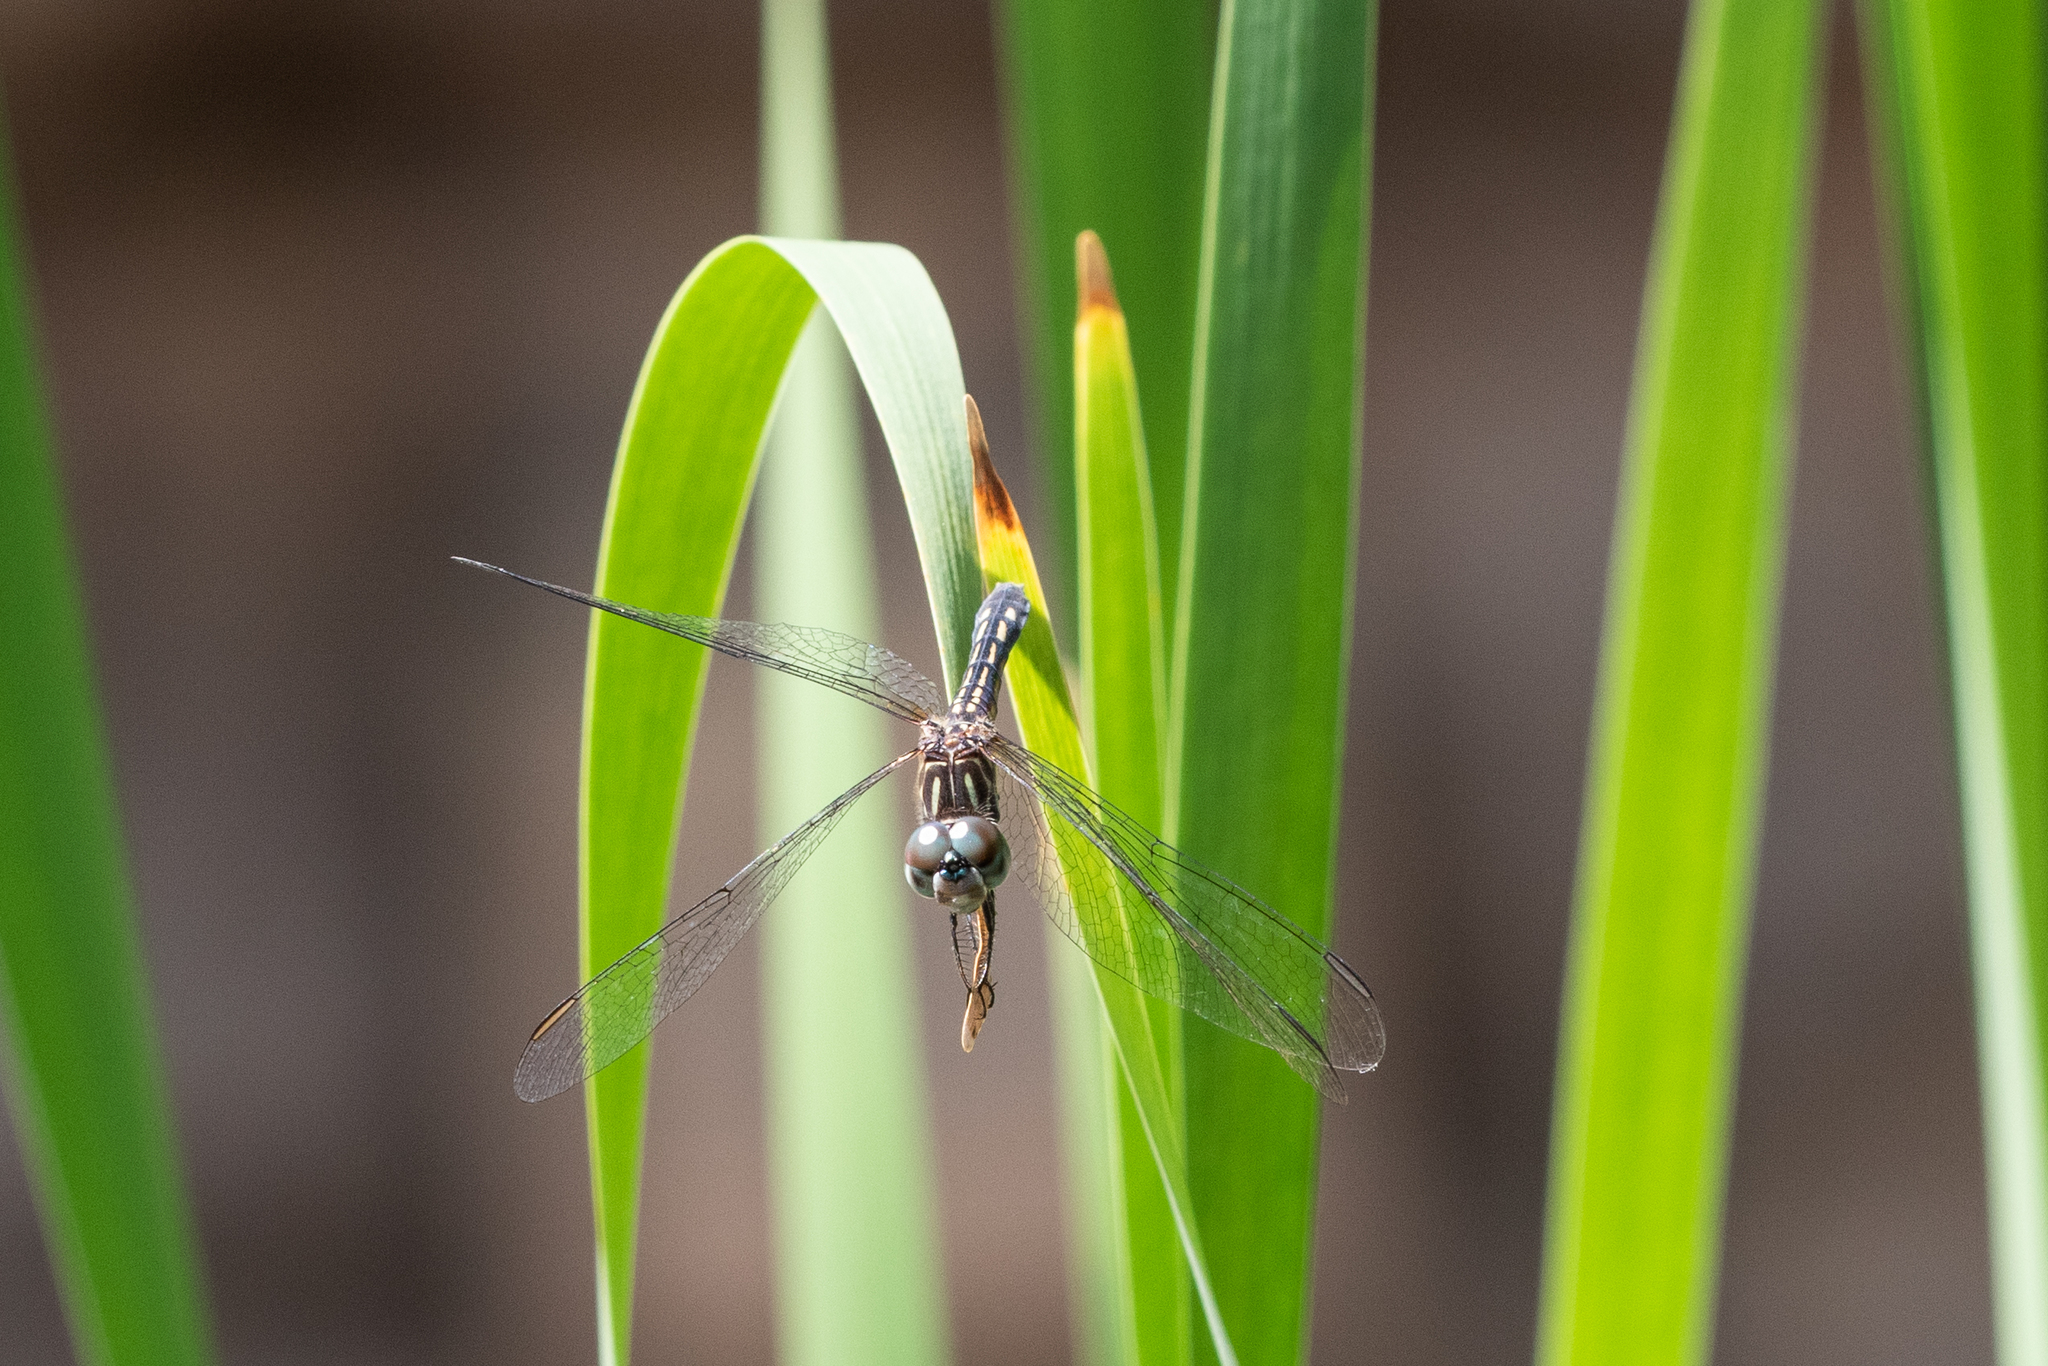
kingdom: Animalia
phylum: Arthropoda
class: Insecta
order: Odonata
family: Libellulidae
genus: Pachydiplax
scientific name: Pachydiplax longipennis
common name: Blue dasher
